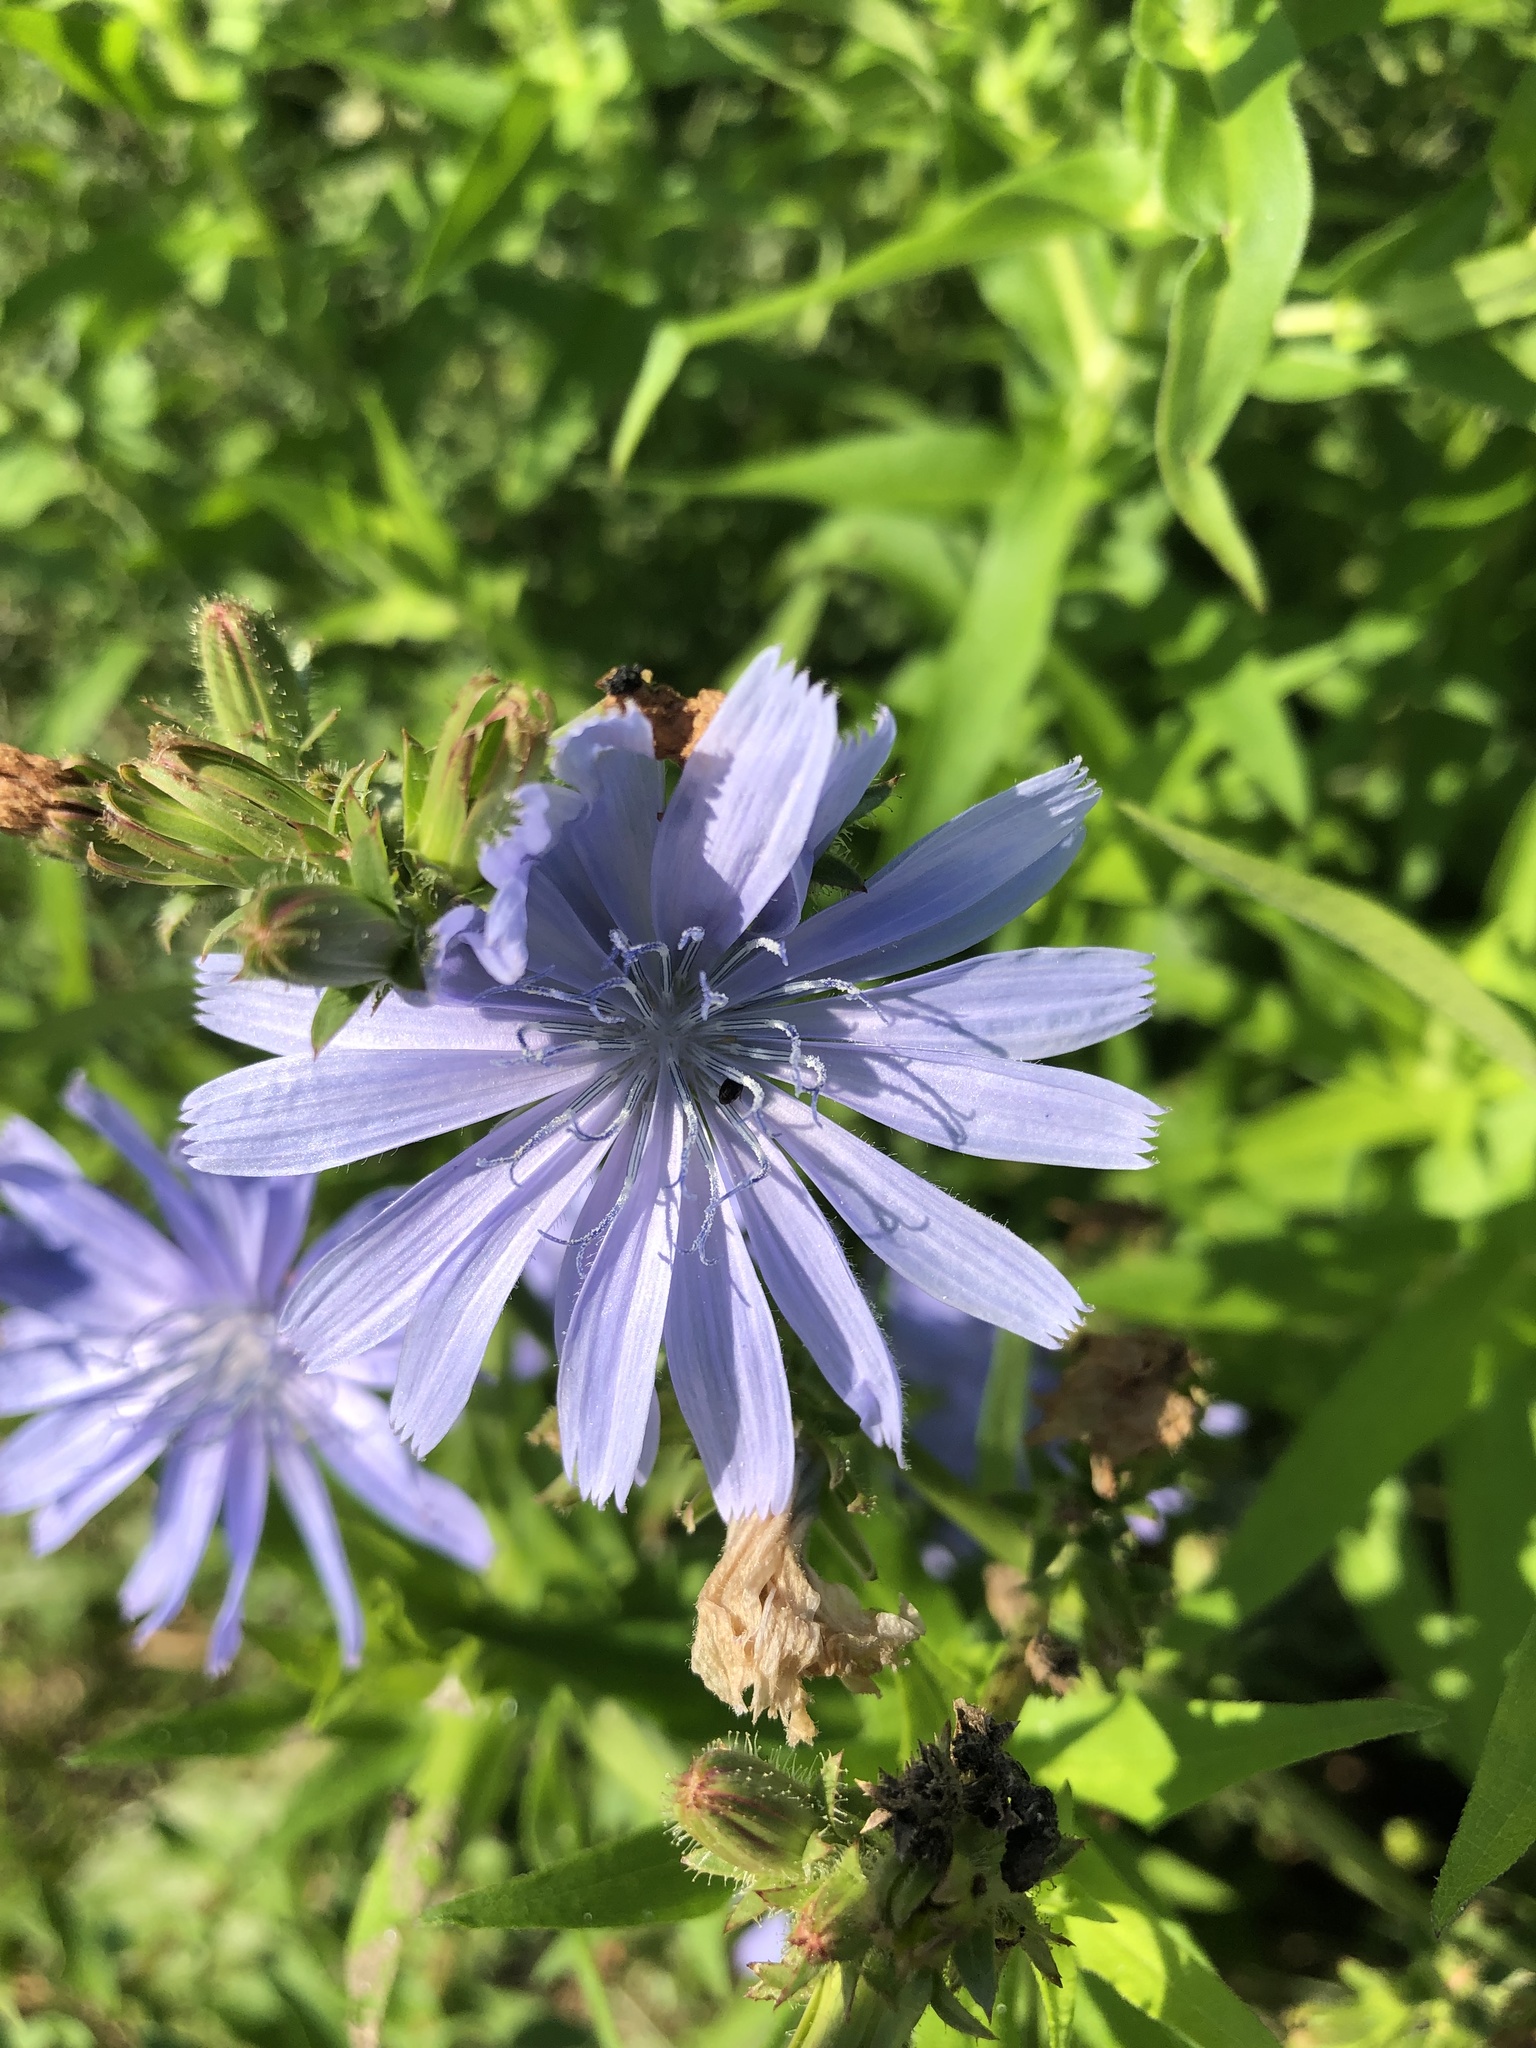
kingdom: Plantae
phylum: Tracheophyta
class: Magnoliopsida
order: Asterales
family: Asteraceae
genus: Cichorium
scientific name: Cichorium intybus
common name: Chicory
